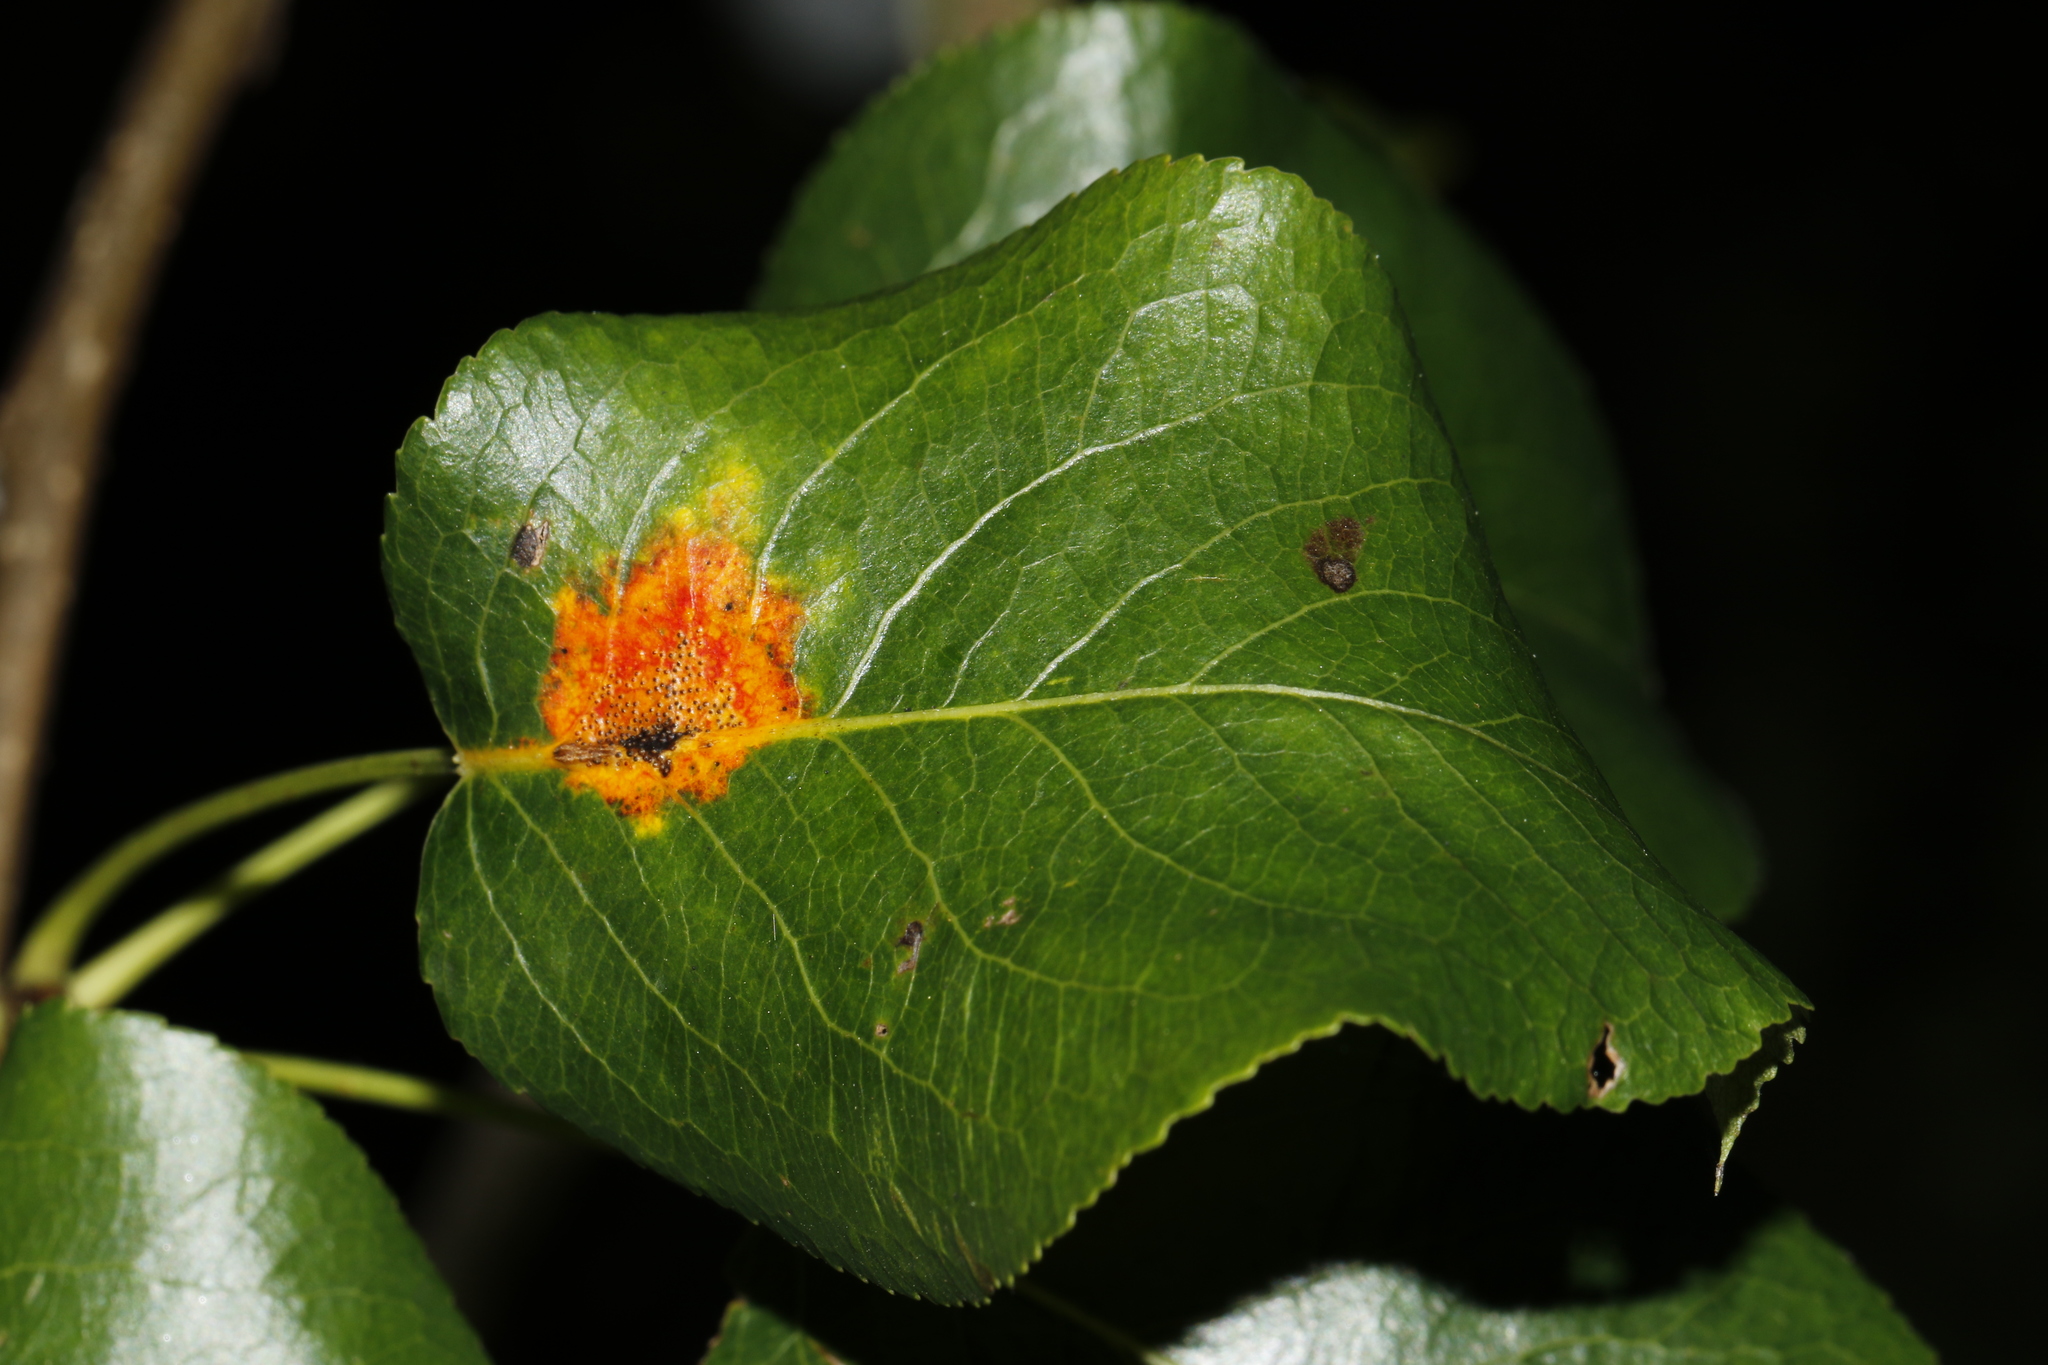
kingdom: Fungi
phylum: Basidiomycota
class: Pucciniomycetes
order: Pucciniales
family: Gymnosporangiaceae
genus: Gymnosporangium
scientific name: Gymnosporangium sabinae
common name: Pear trellis rust fungus
